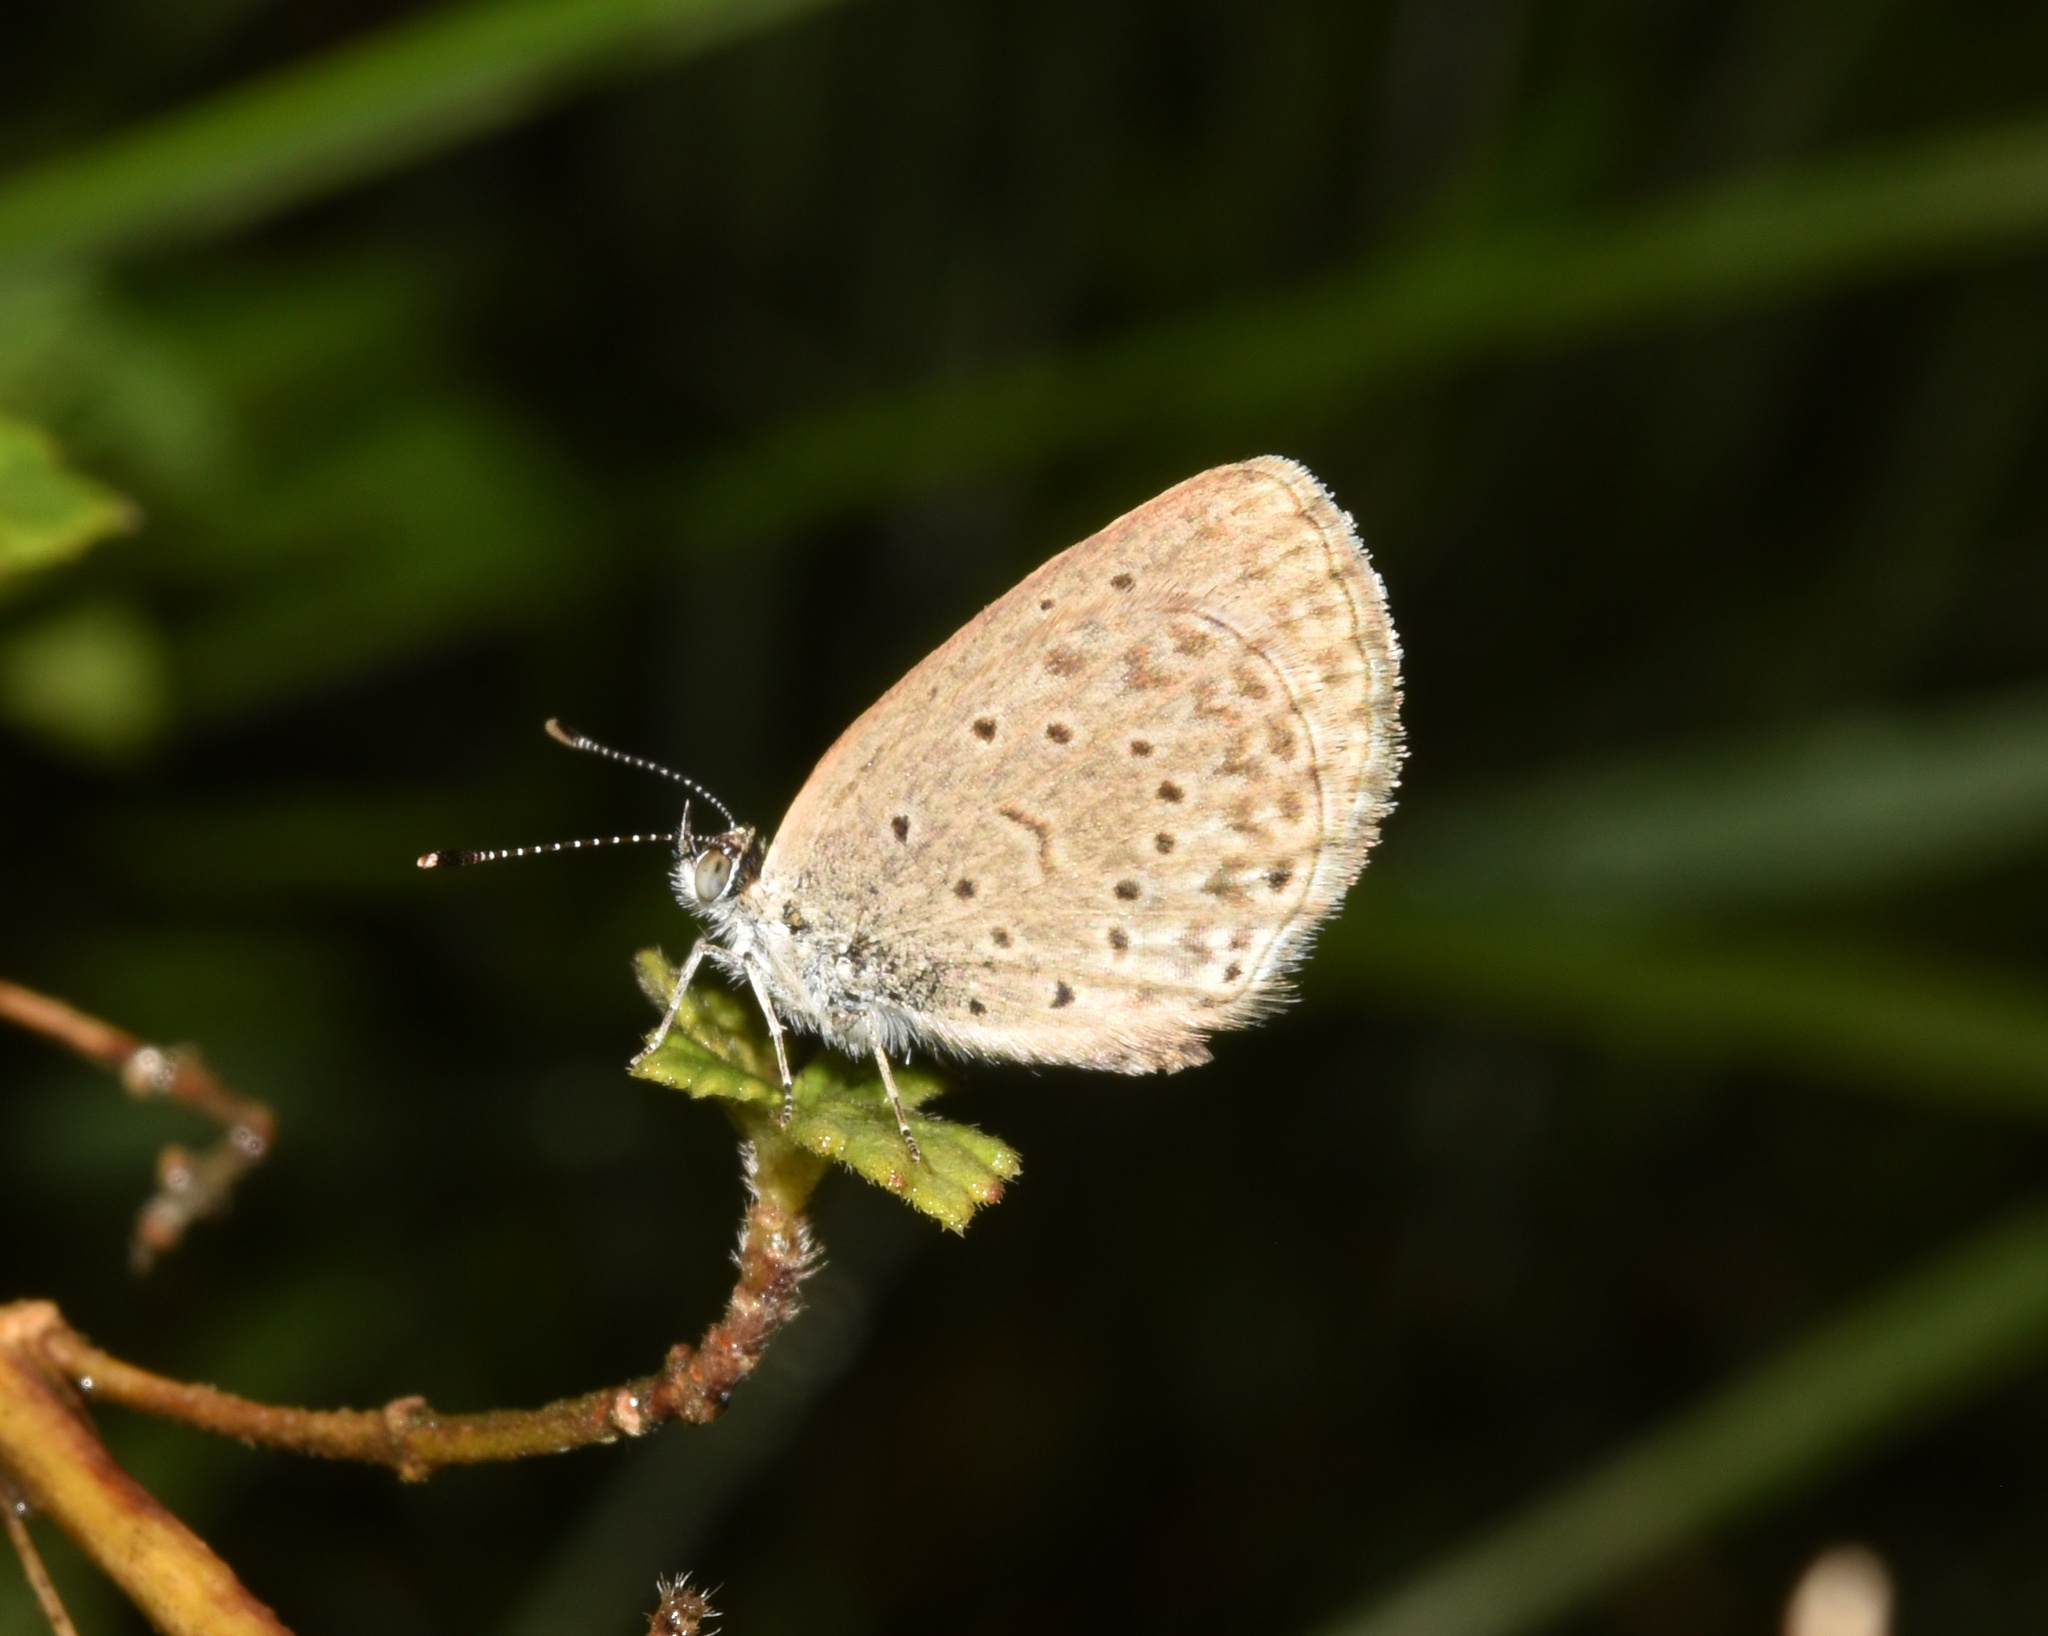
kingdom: Animalia
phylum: Arthropoda
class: Insecta
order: Lepidoptera
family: Lycaenidae
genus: Zizeeria
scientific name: Zizeeria knysna
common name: African grass blue
